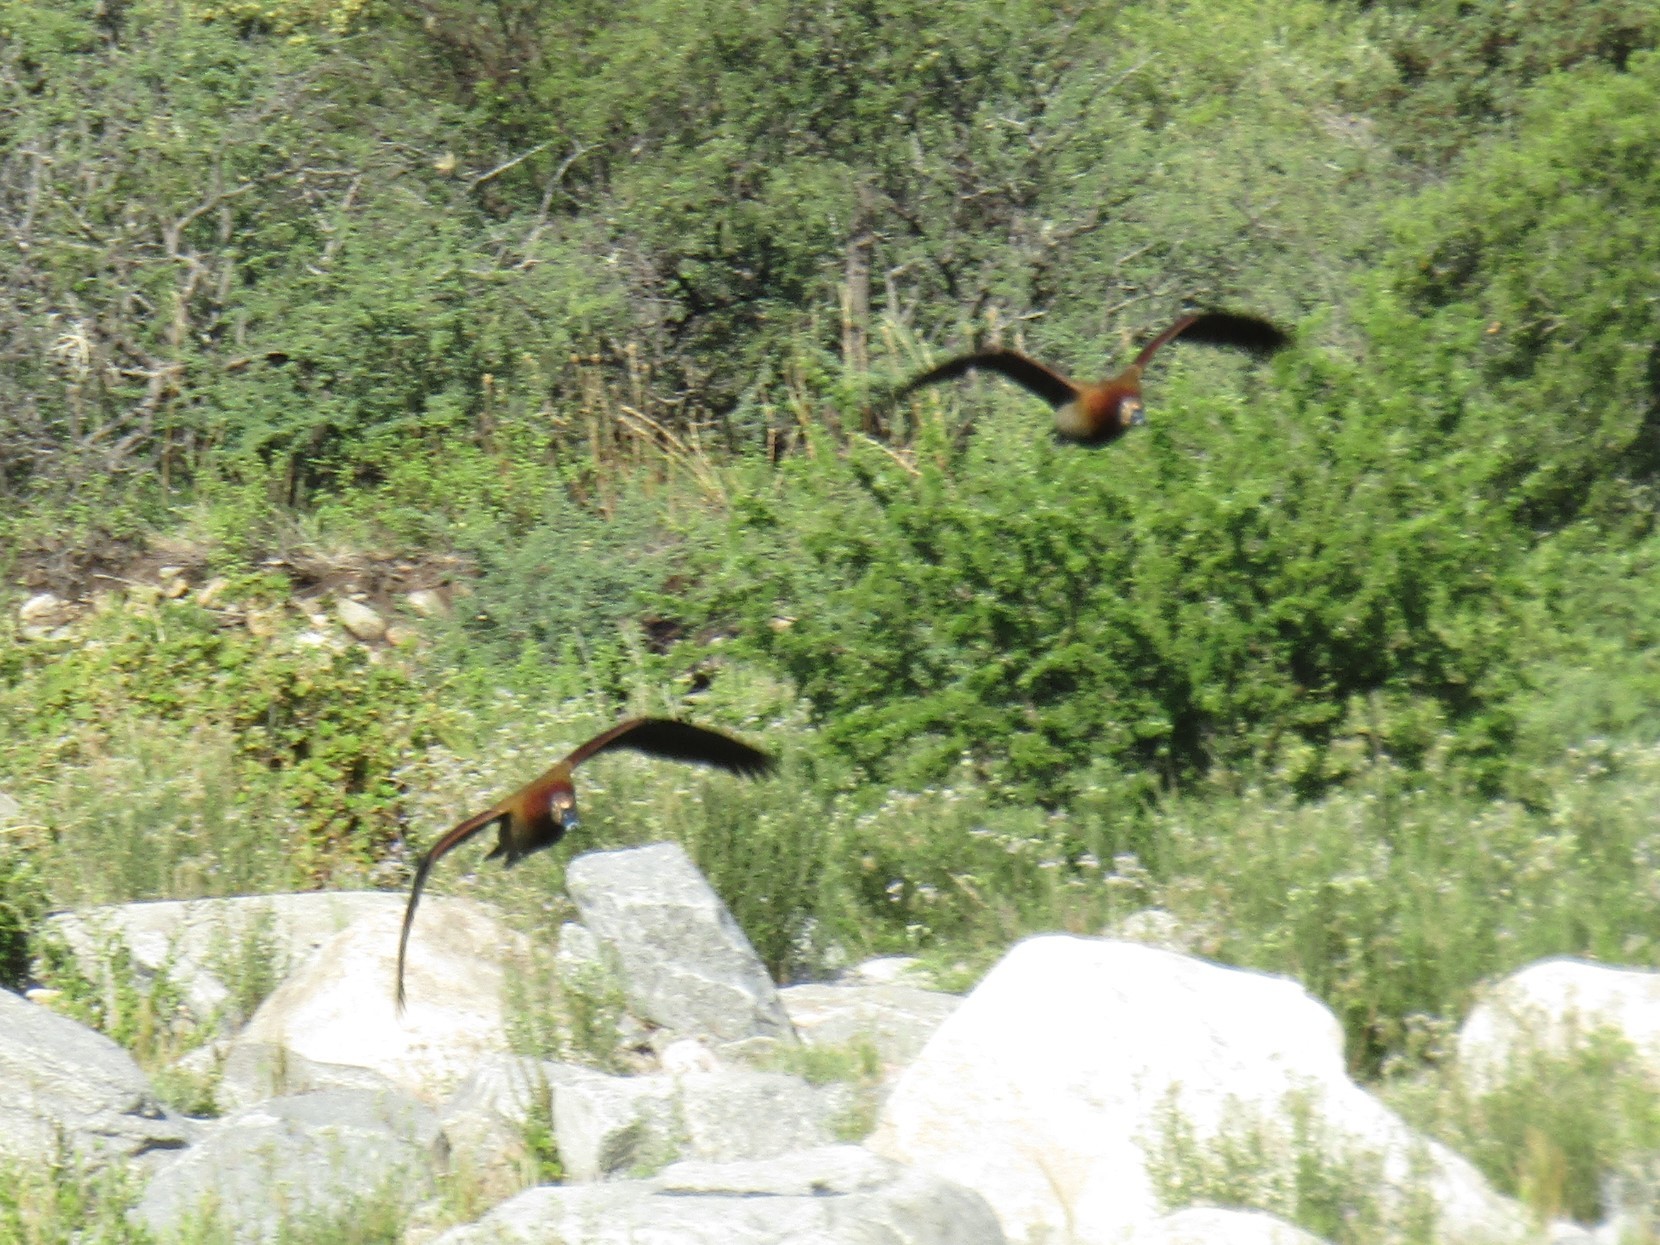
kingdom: Animalia
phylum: Chordata
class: Aves
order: Anseriformes
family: Anatidae
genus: Dendrocygna
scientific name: Dendrocygna viduata
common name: White-faced whistling duck
